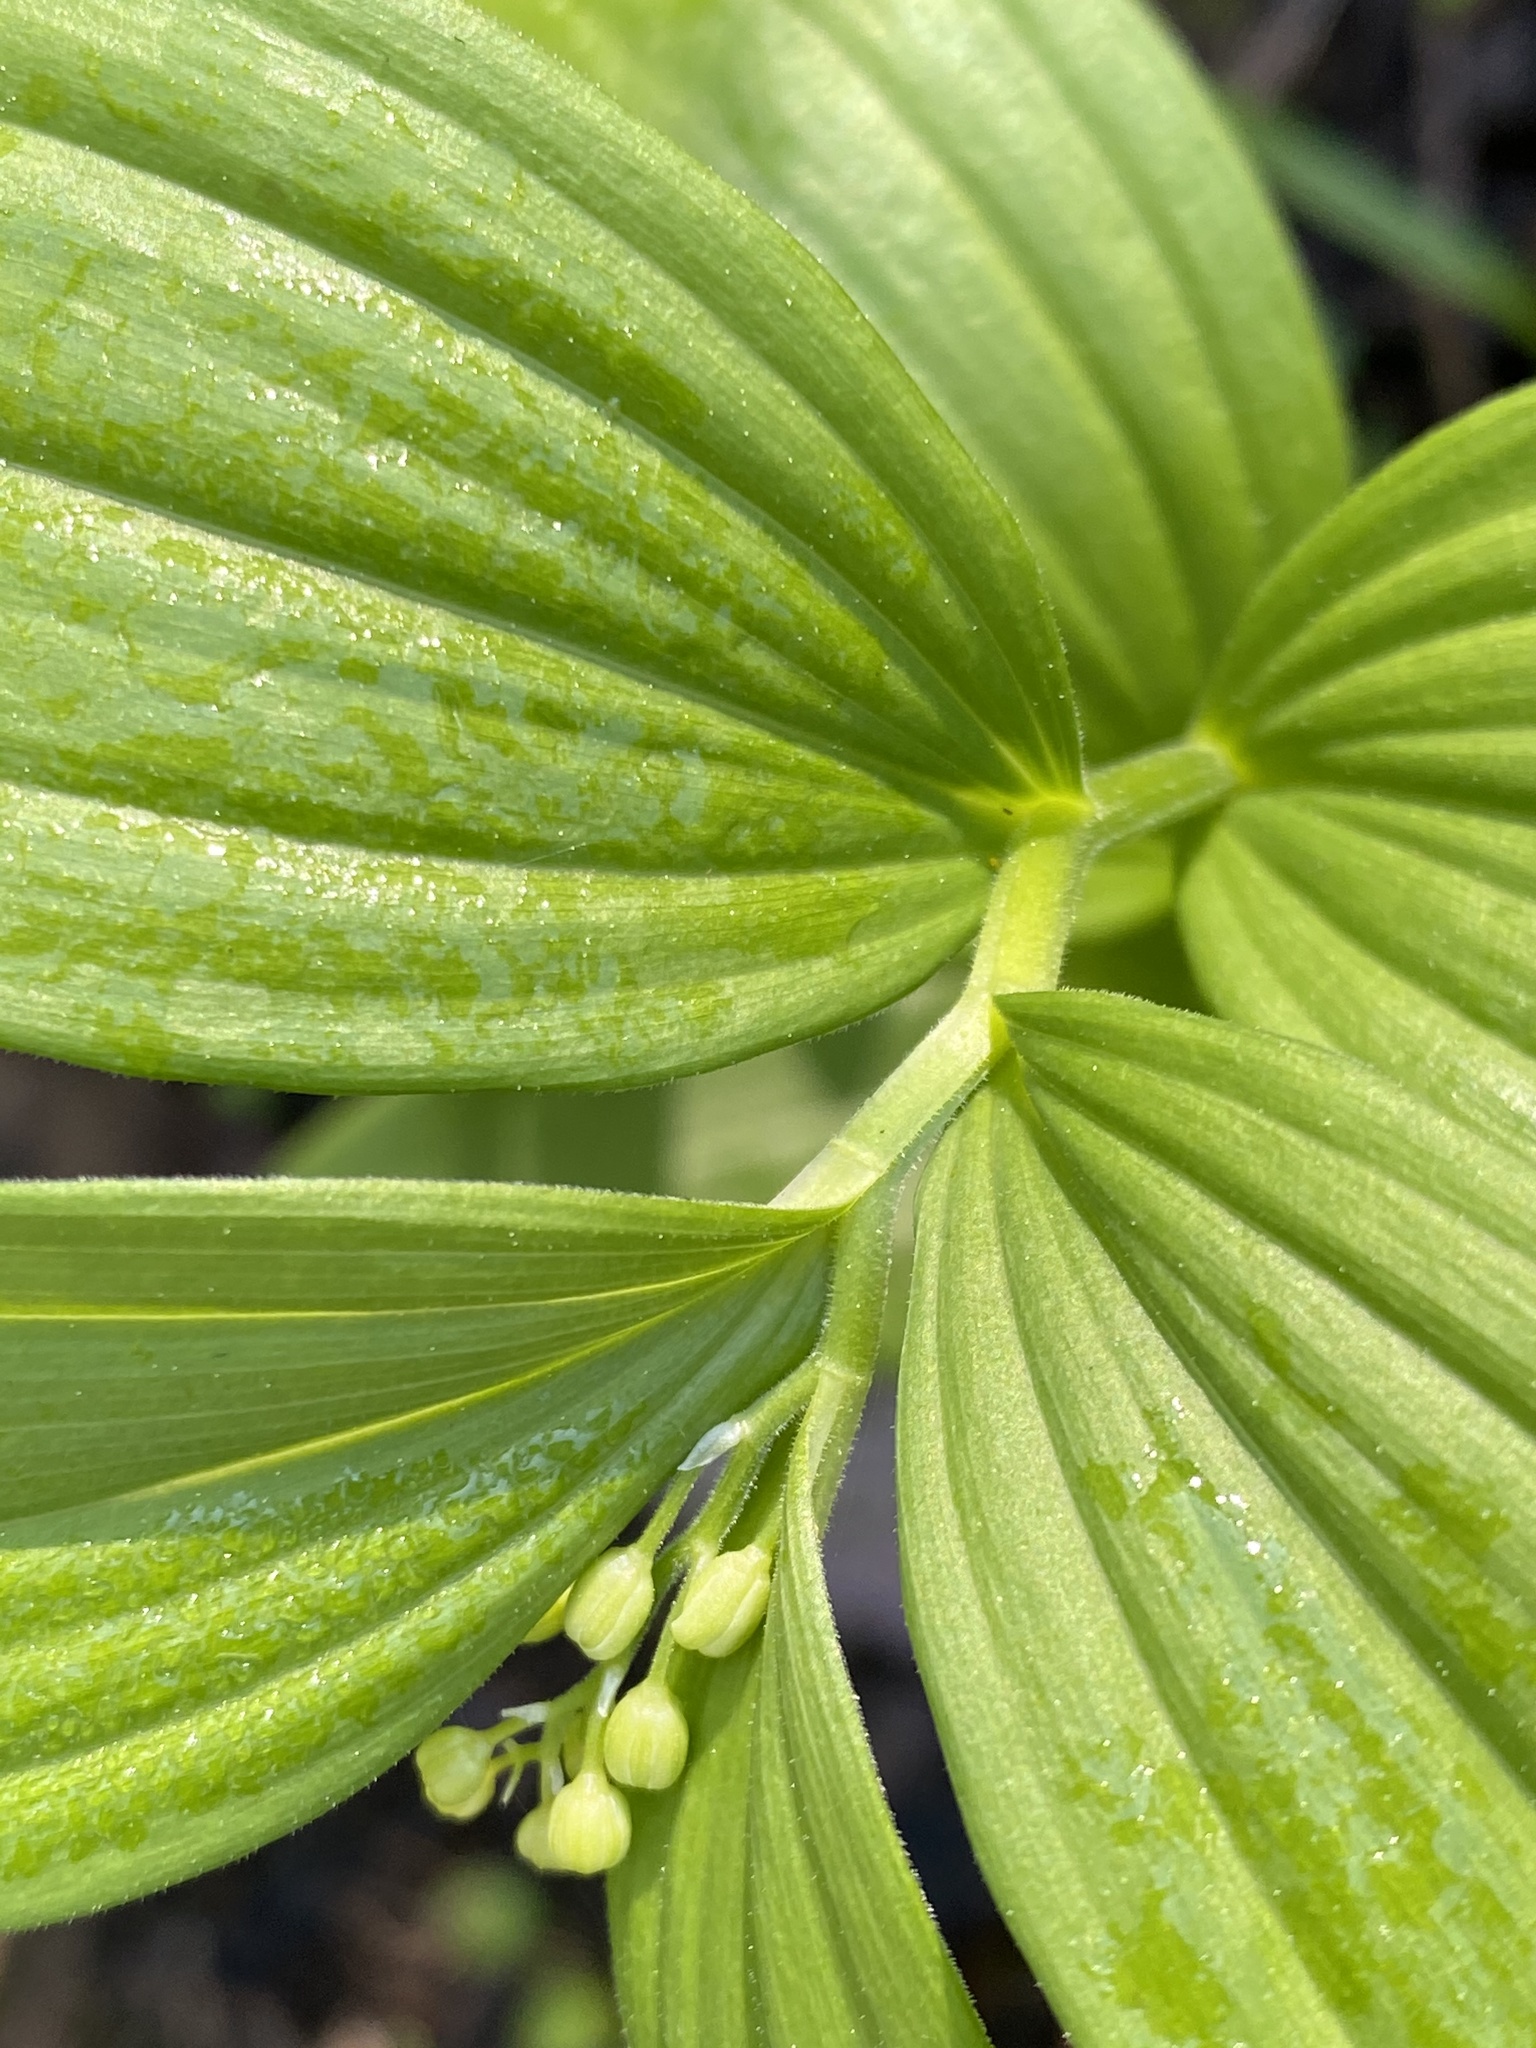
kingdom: Plantae
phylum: Tracheophyta
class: Liliopsida
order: Asparagales
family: Asparagaceae
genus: Maianthemum
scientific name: Maianthemum stellatum
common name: Little false solomon's seal
